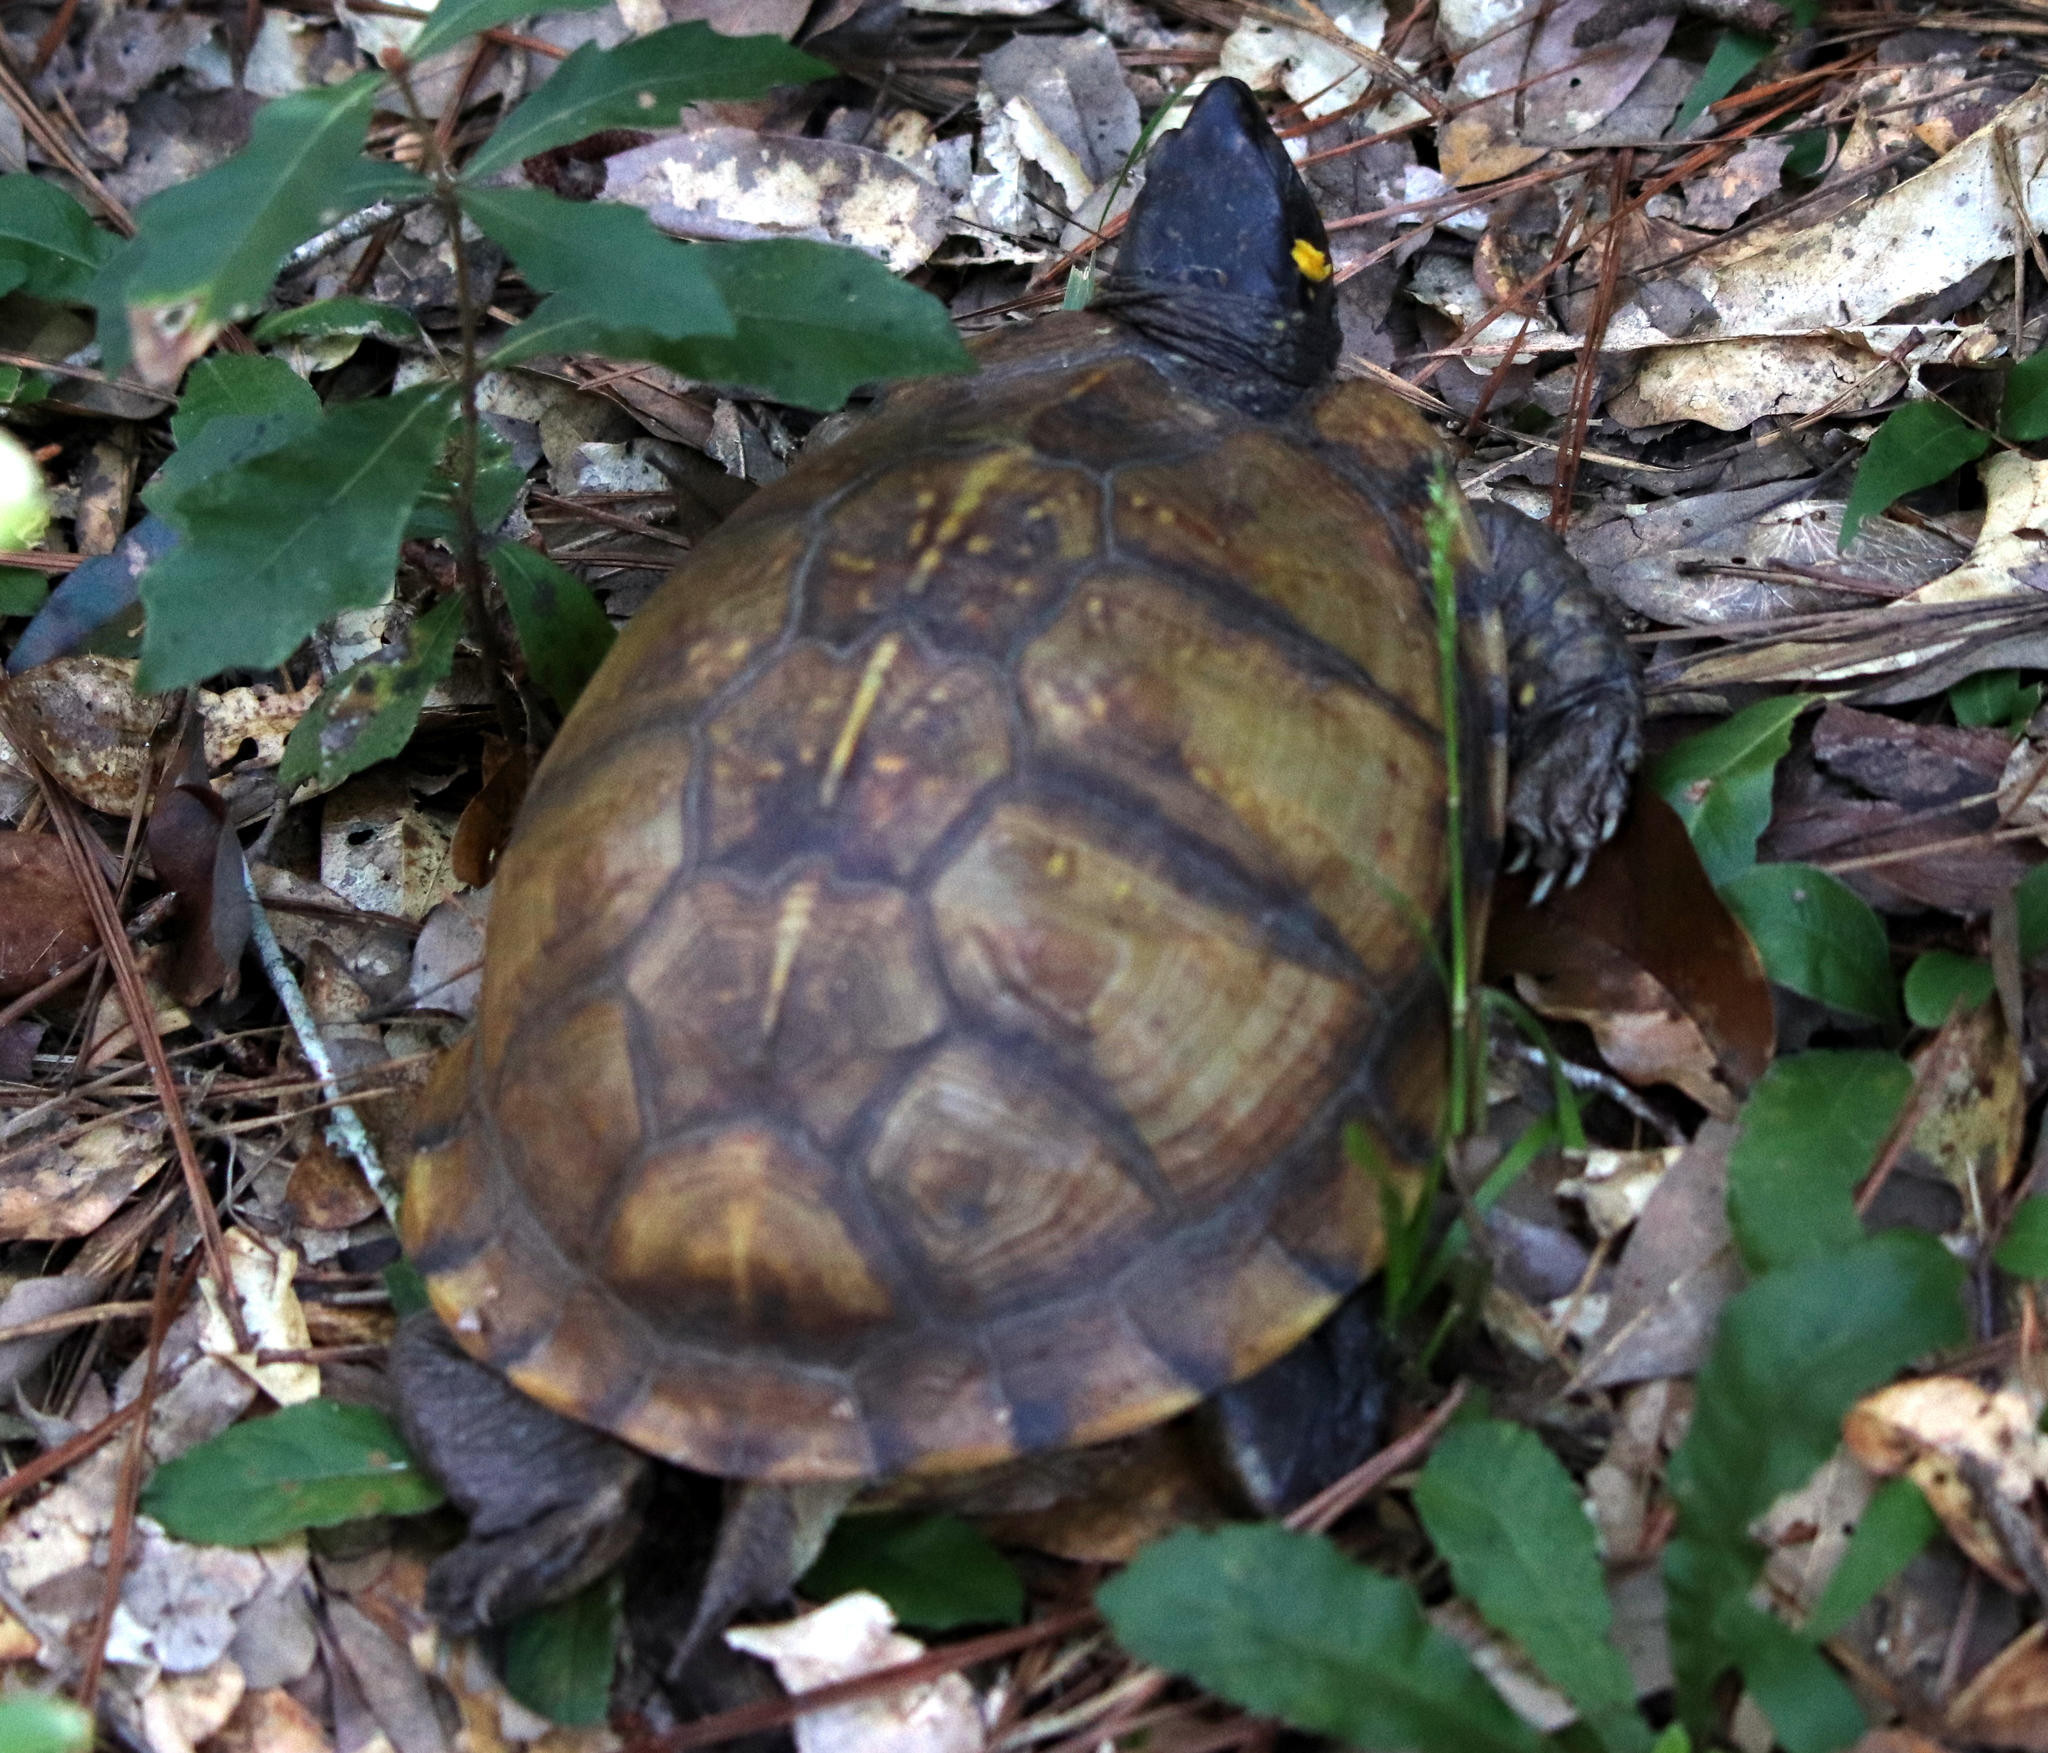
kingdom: Animalia
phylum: Chordata
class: Testudines
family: Emydidae
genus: Terrapene
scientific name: Terrapene carolina
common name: Common box turtle
